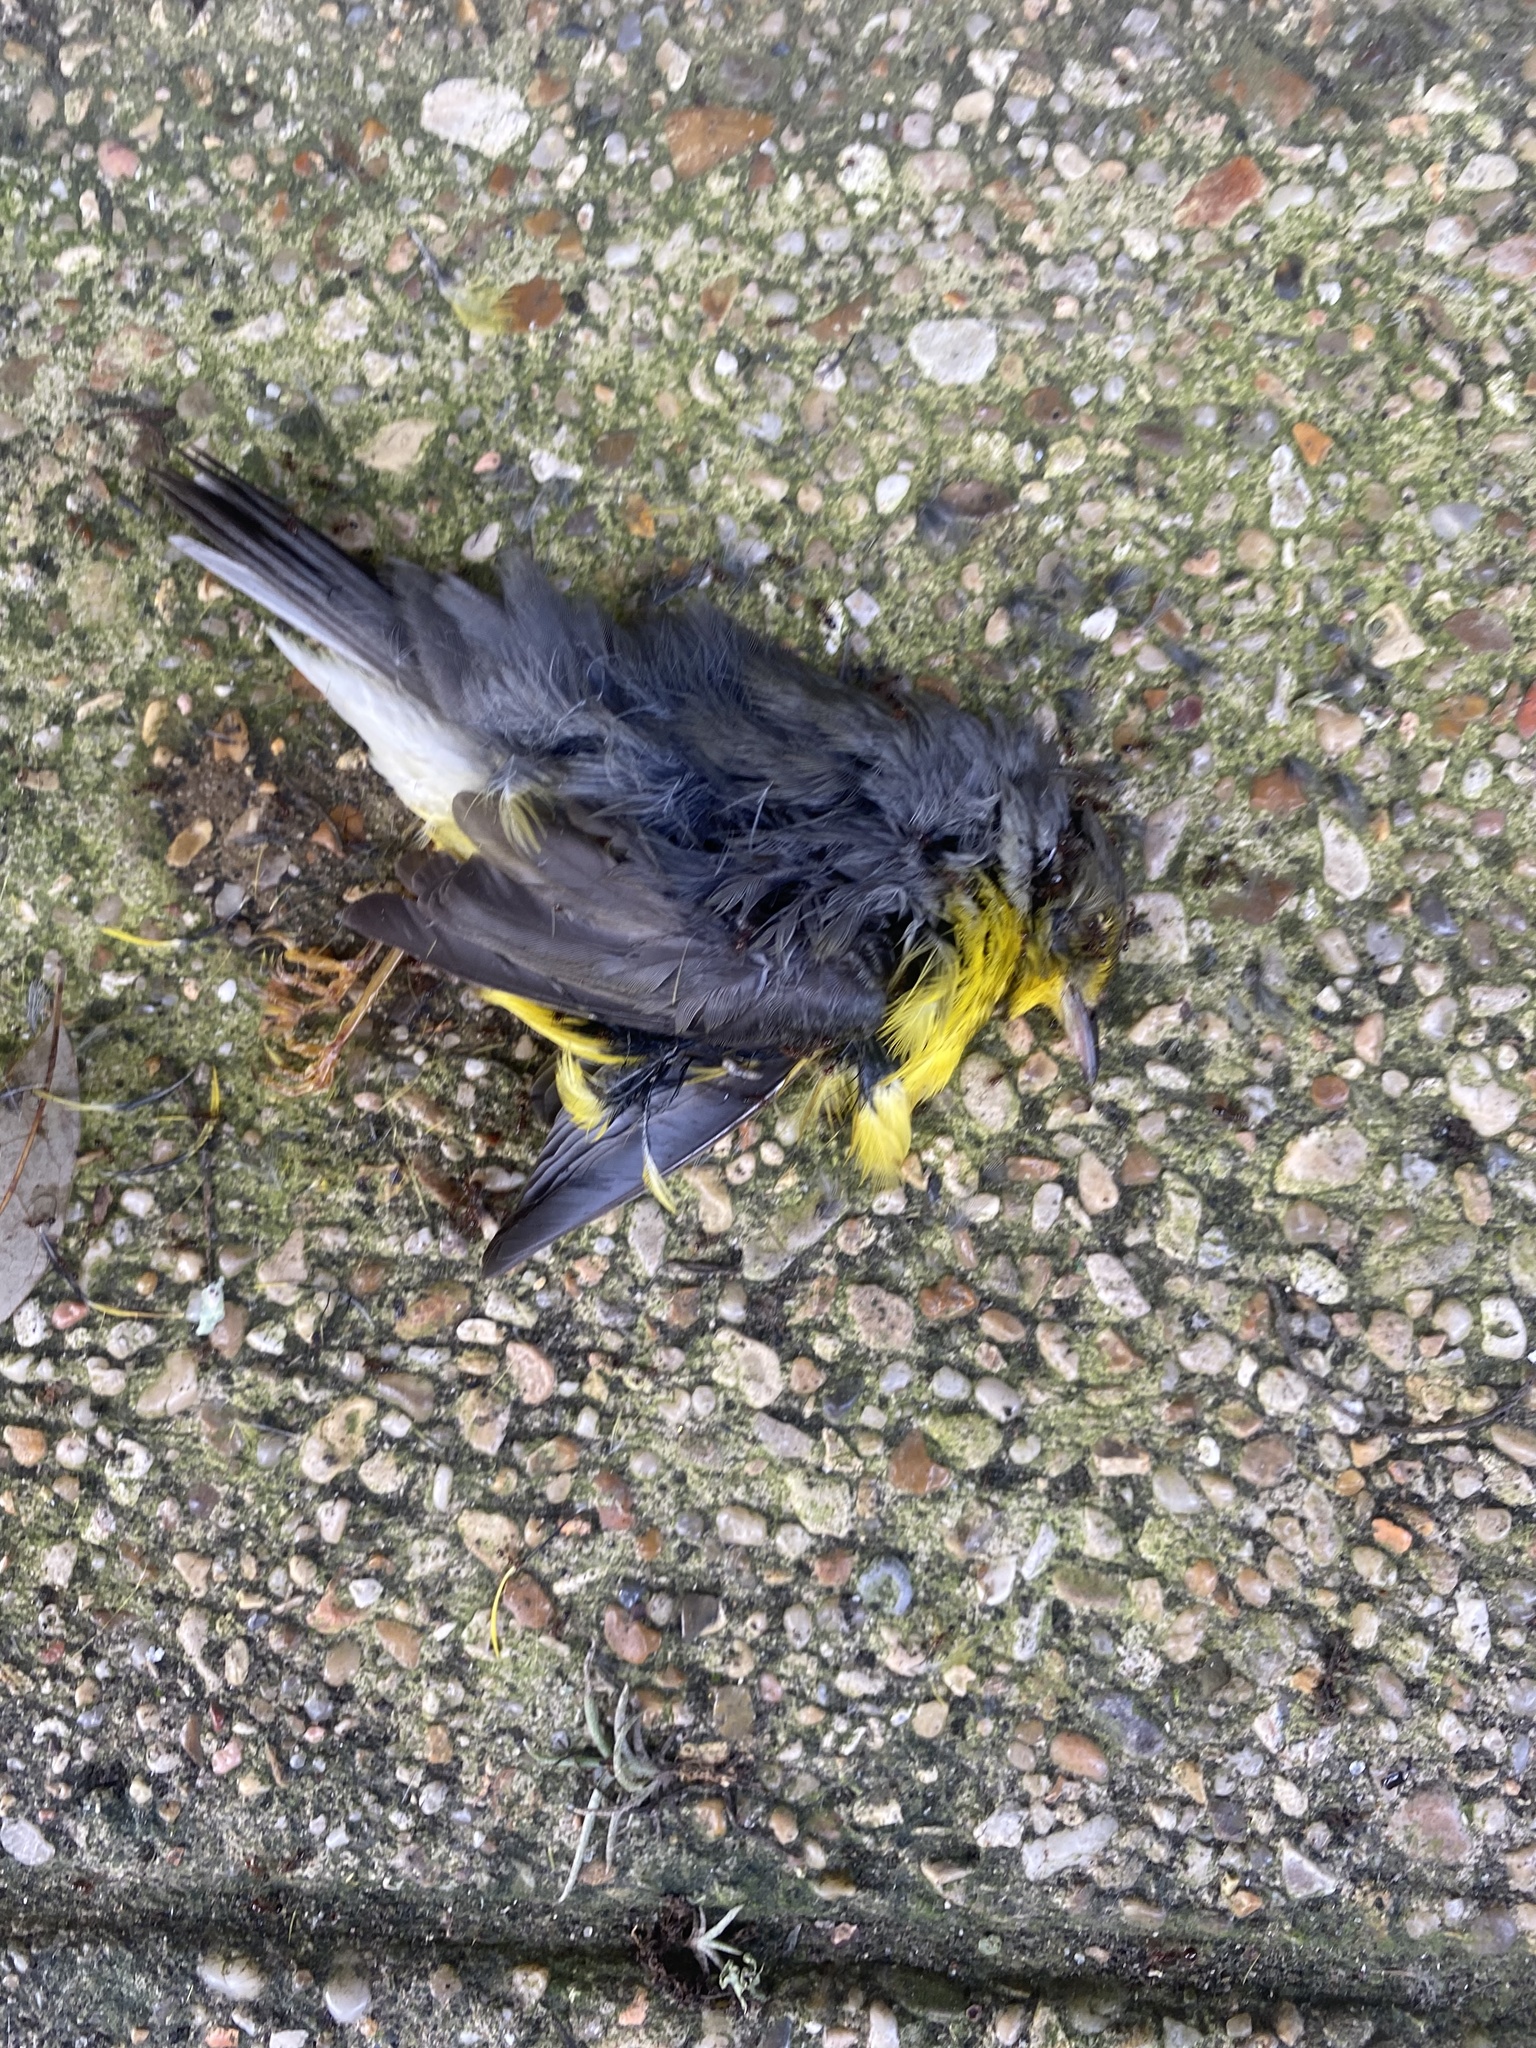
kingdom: Animalia
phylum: Chordata
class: Aves
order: Passeriformes
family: Parulidae
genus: Cardellina
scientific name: Cardellina canadensis
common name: Canada warbler
